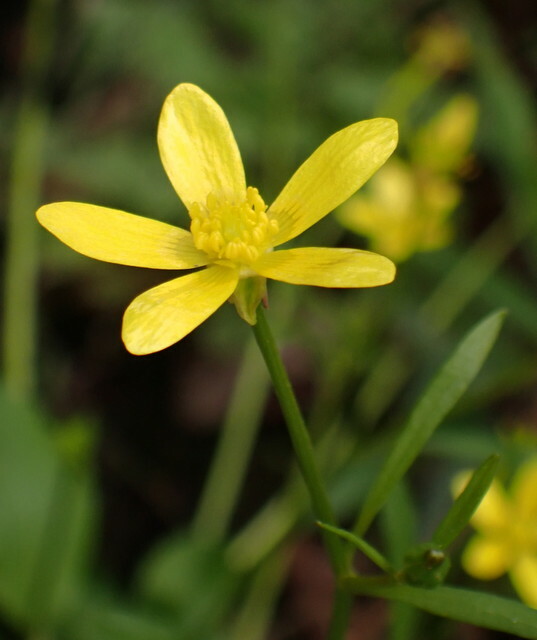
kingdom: Plantae
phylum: Tracheophyta
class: Magnoliopsida
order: Ranunculales
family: Ranunculaceae
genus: Ranunculus
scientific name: Ranunculus hispidus
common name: Bristly buttercup
